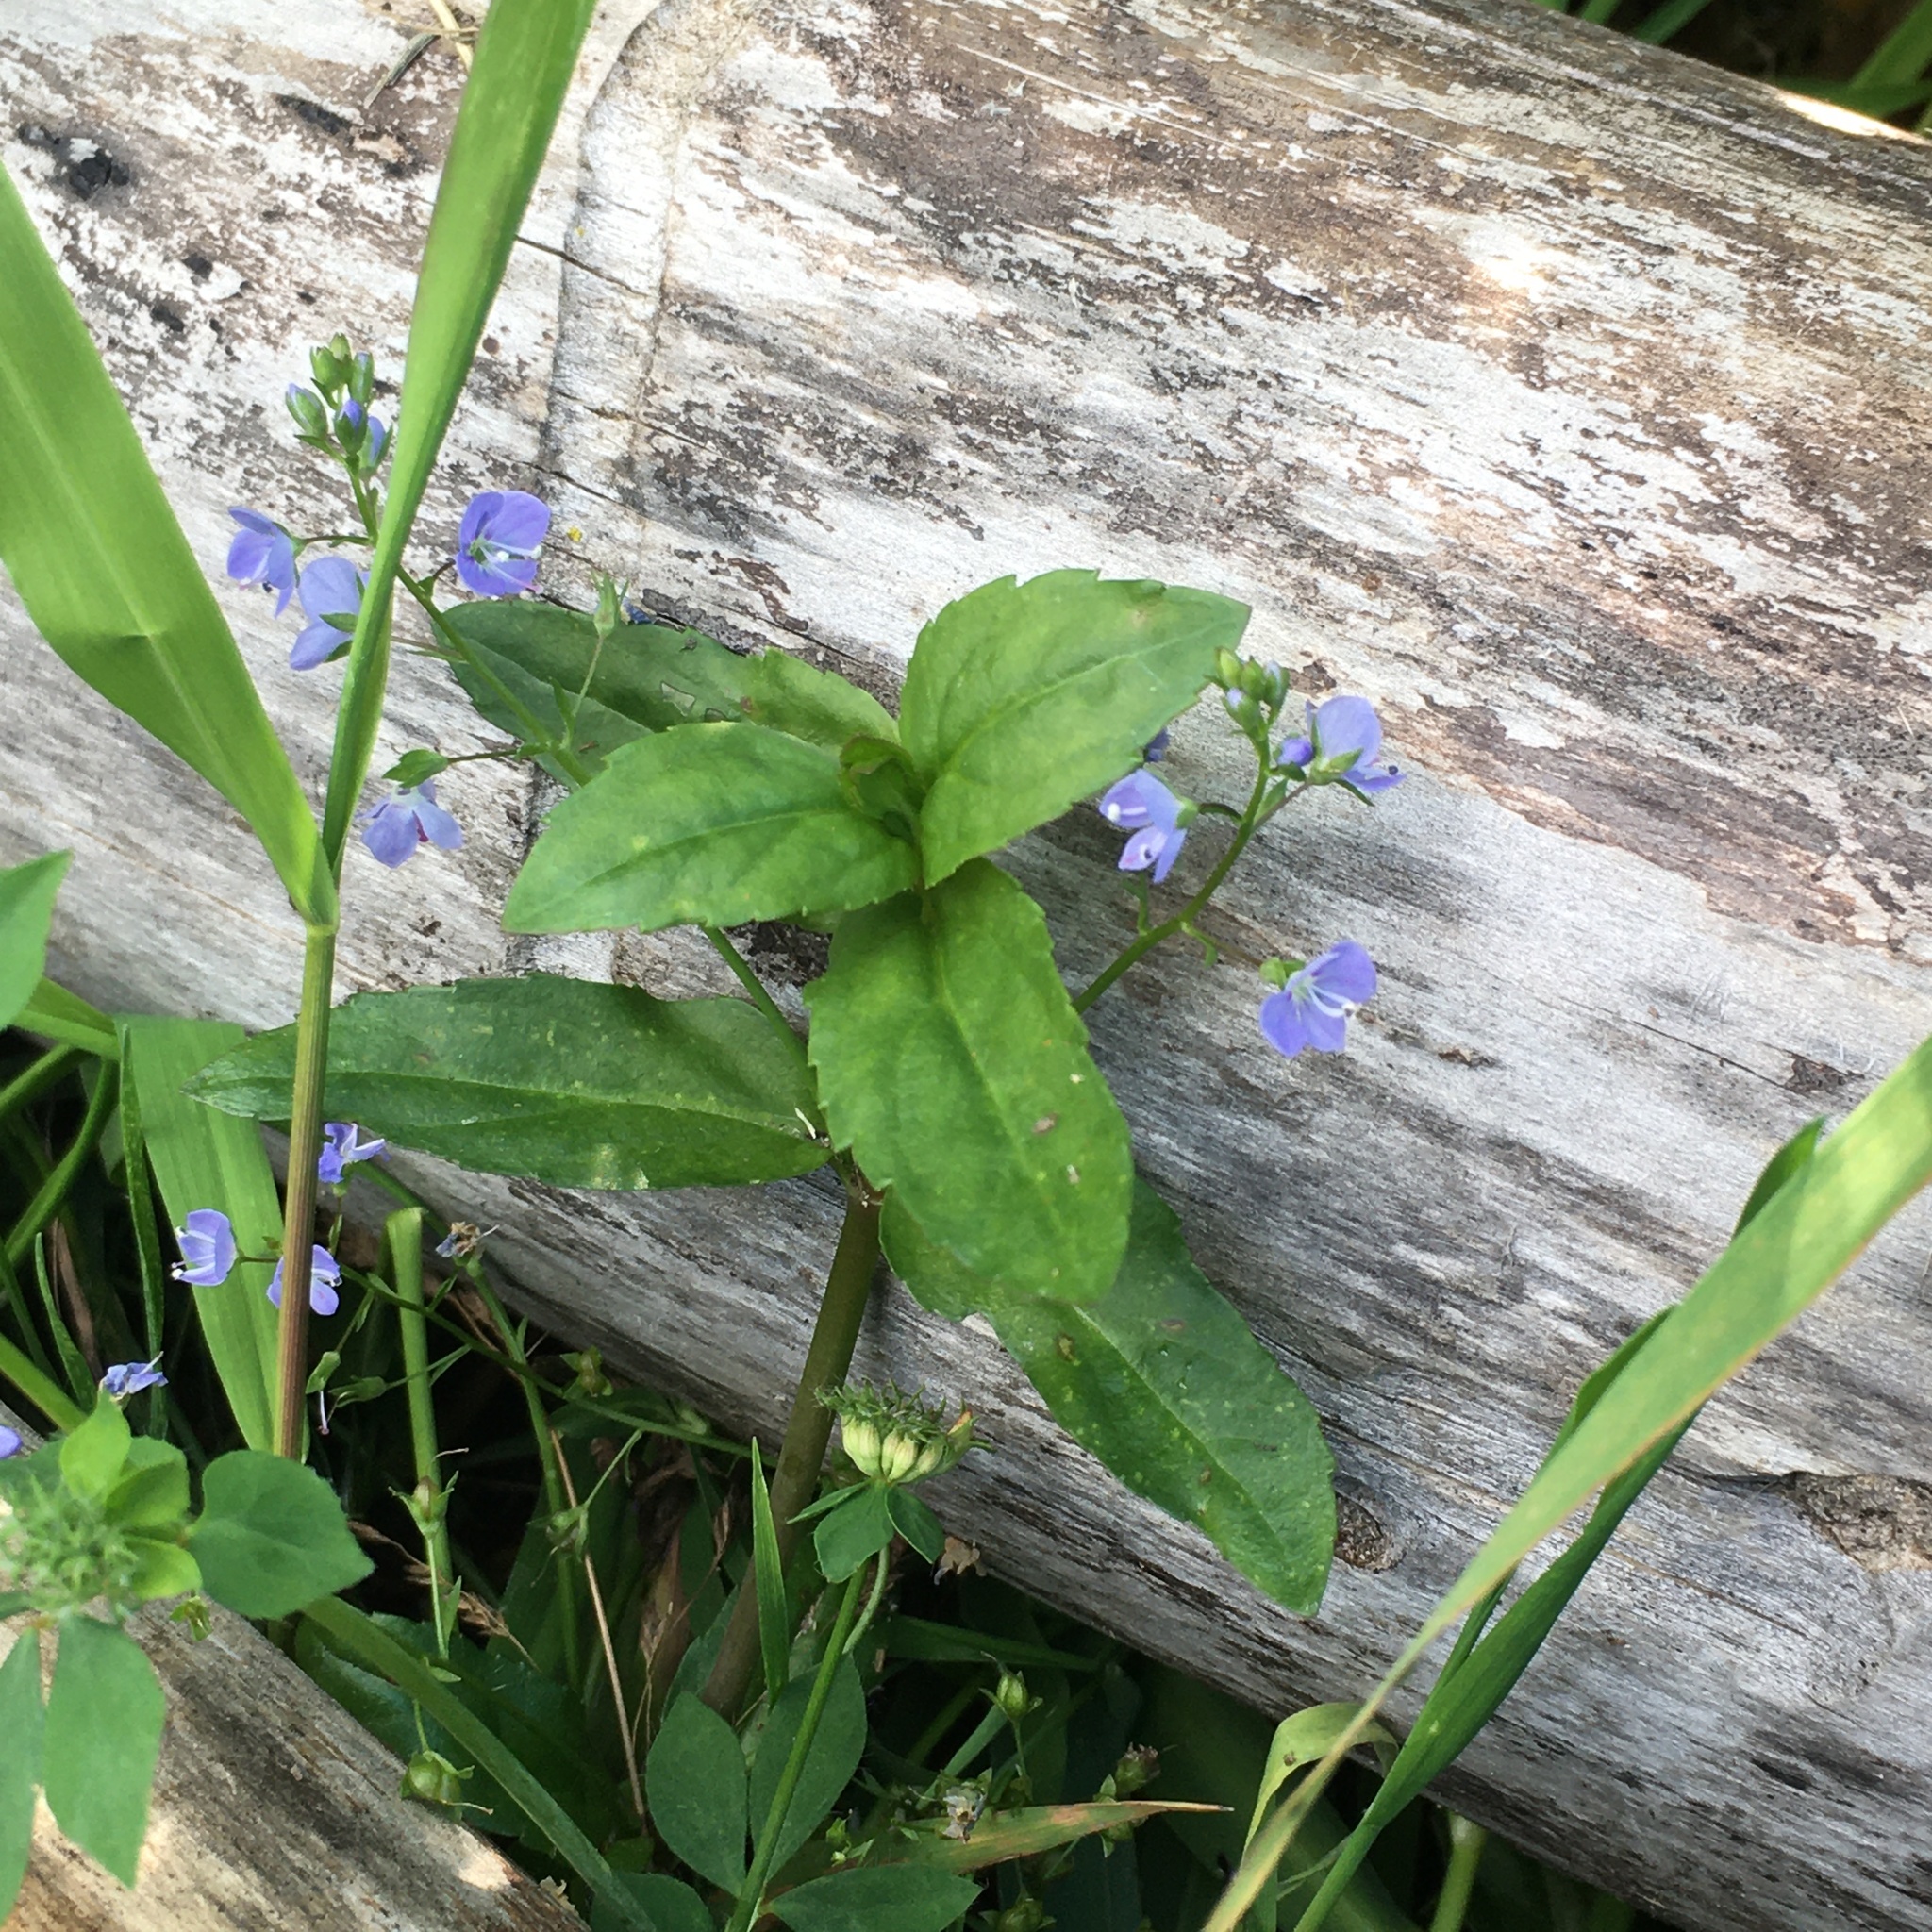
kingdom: Plantae
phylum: Tracheophyta
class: Magnoliopsida
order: Lamiales
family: Plantaginaceae
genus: Veronica
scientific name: Veronica americana
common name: American brooklime
